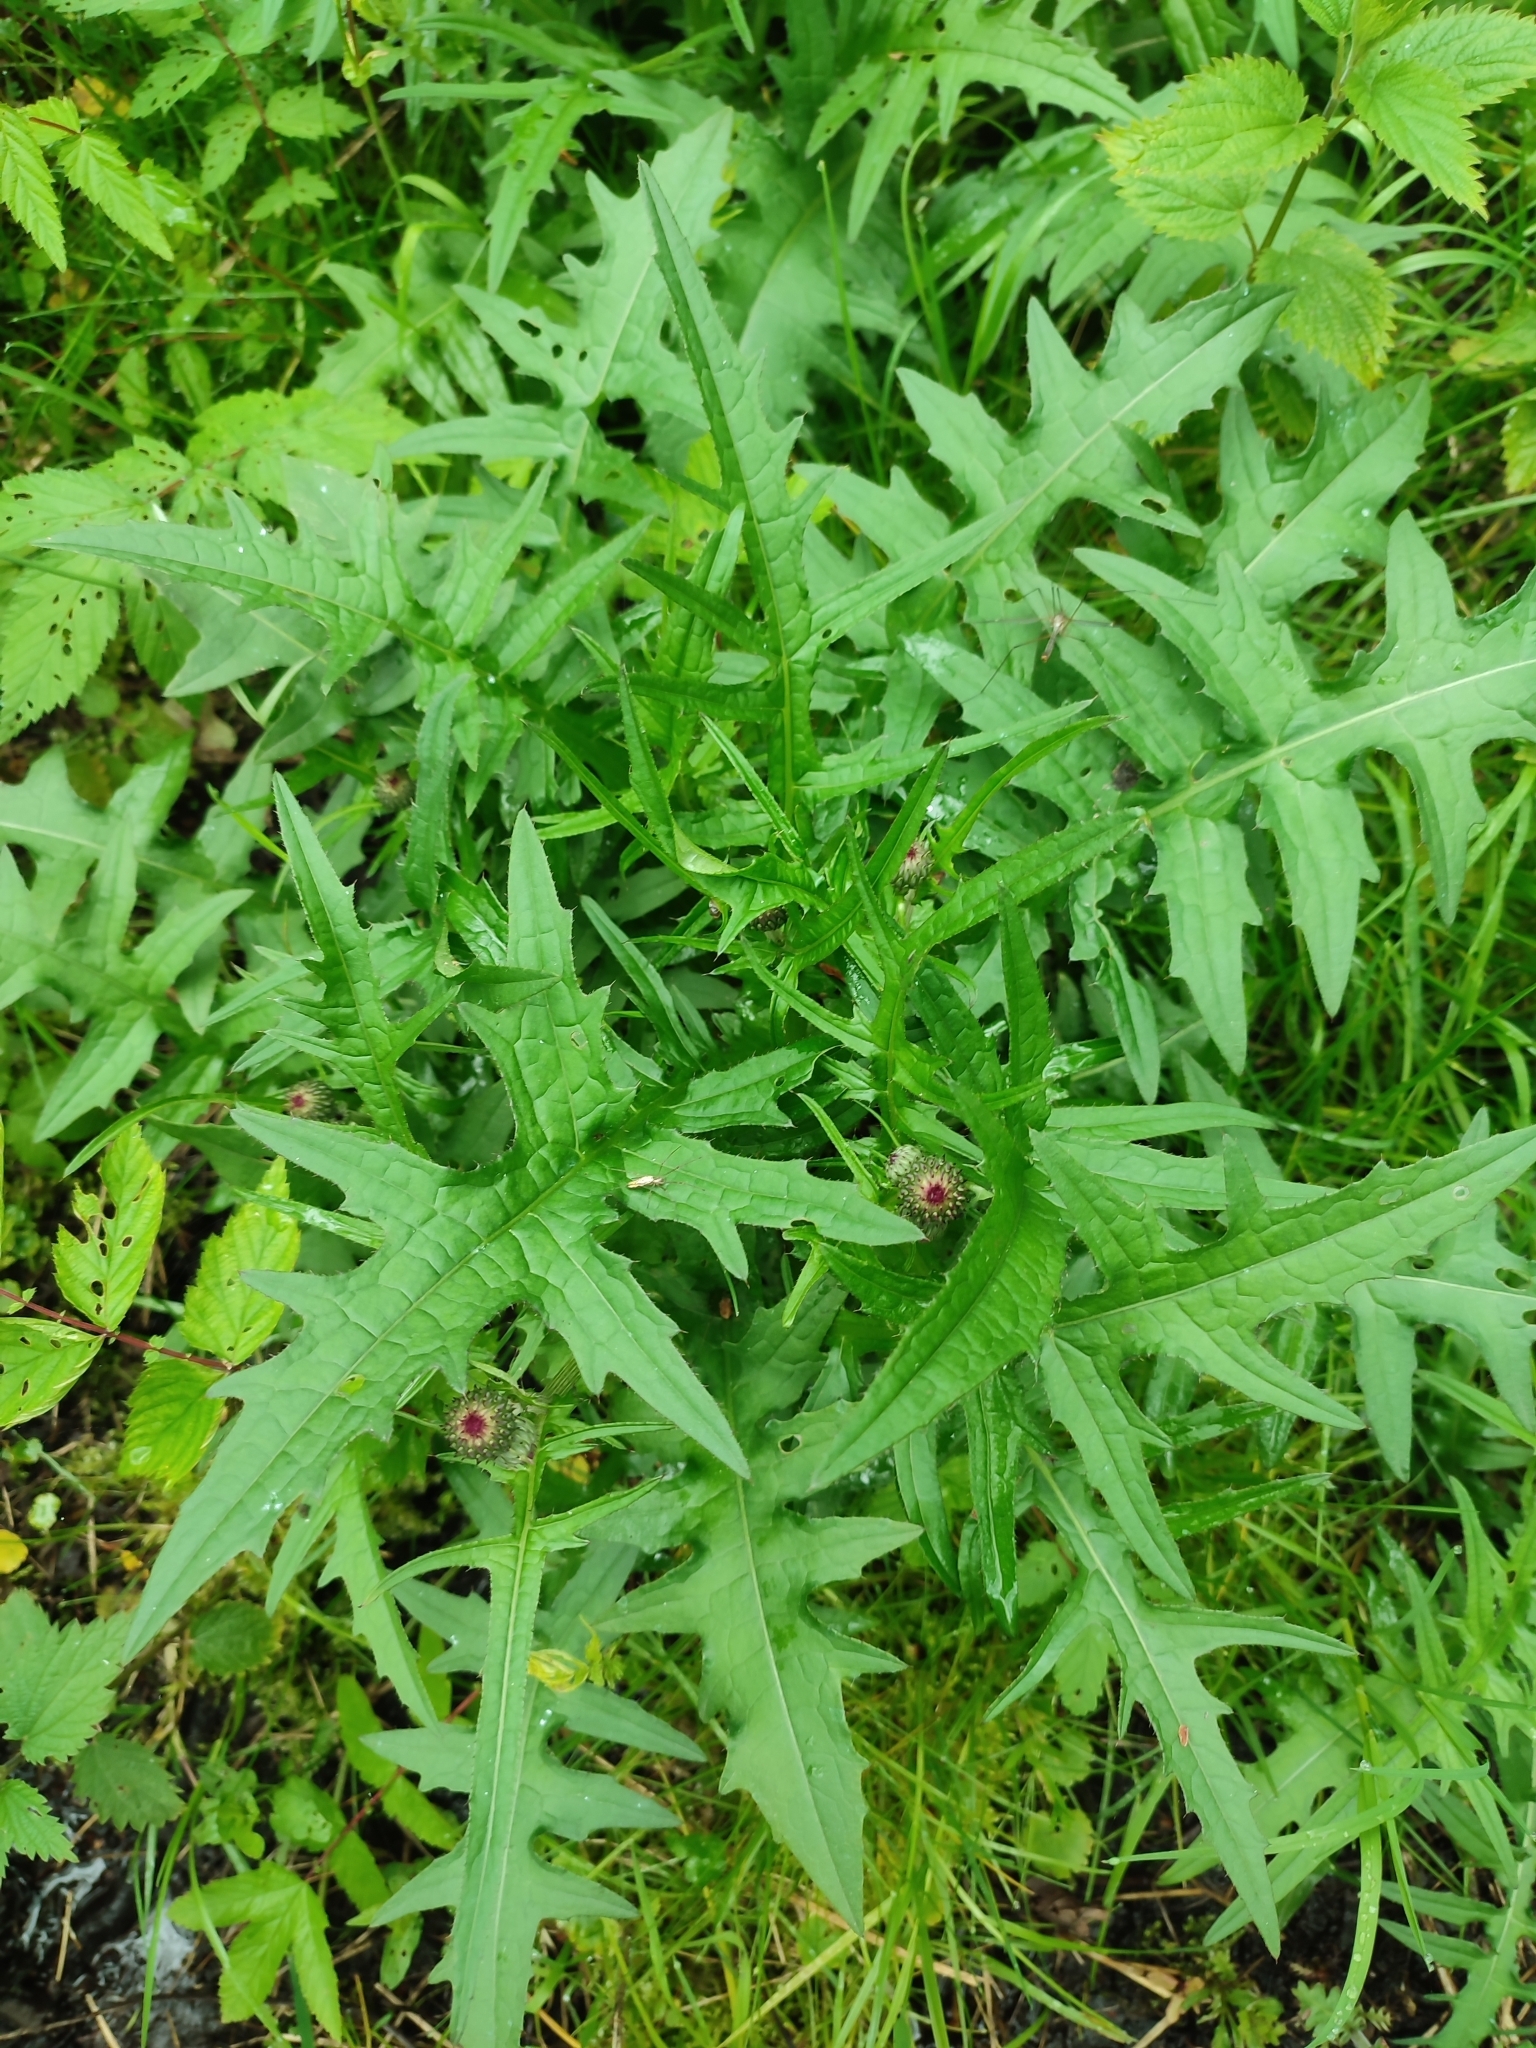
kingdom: Plantae
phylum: Tracheophyta
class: Magnoliopsida
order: Asterales
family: Asteraceae
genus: Cirsium
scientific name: Cirsium rivulare
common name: Brook thistle
